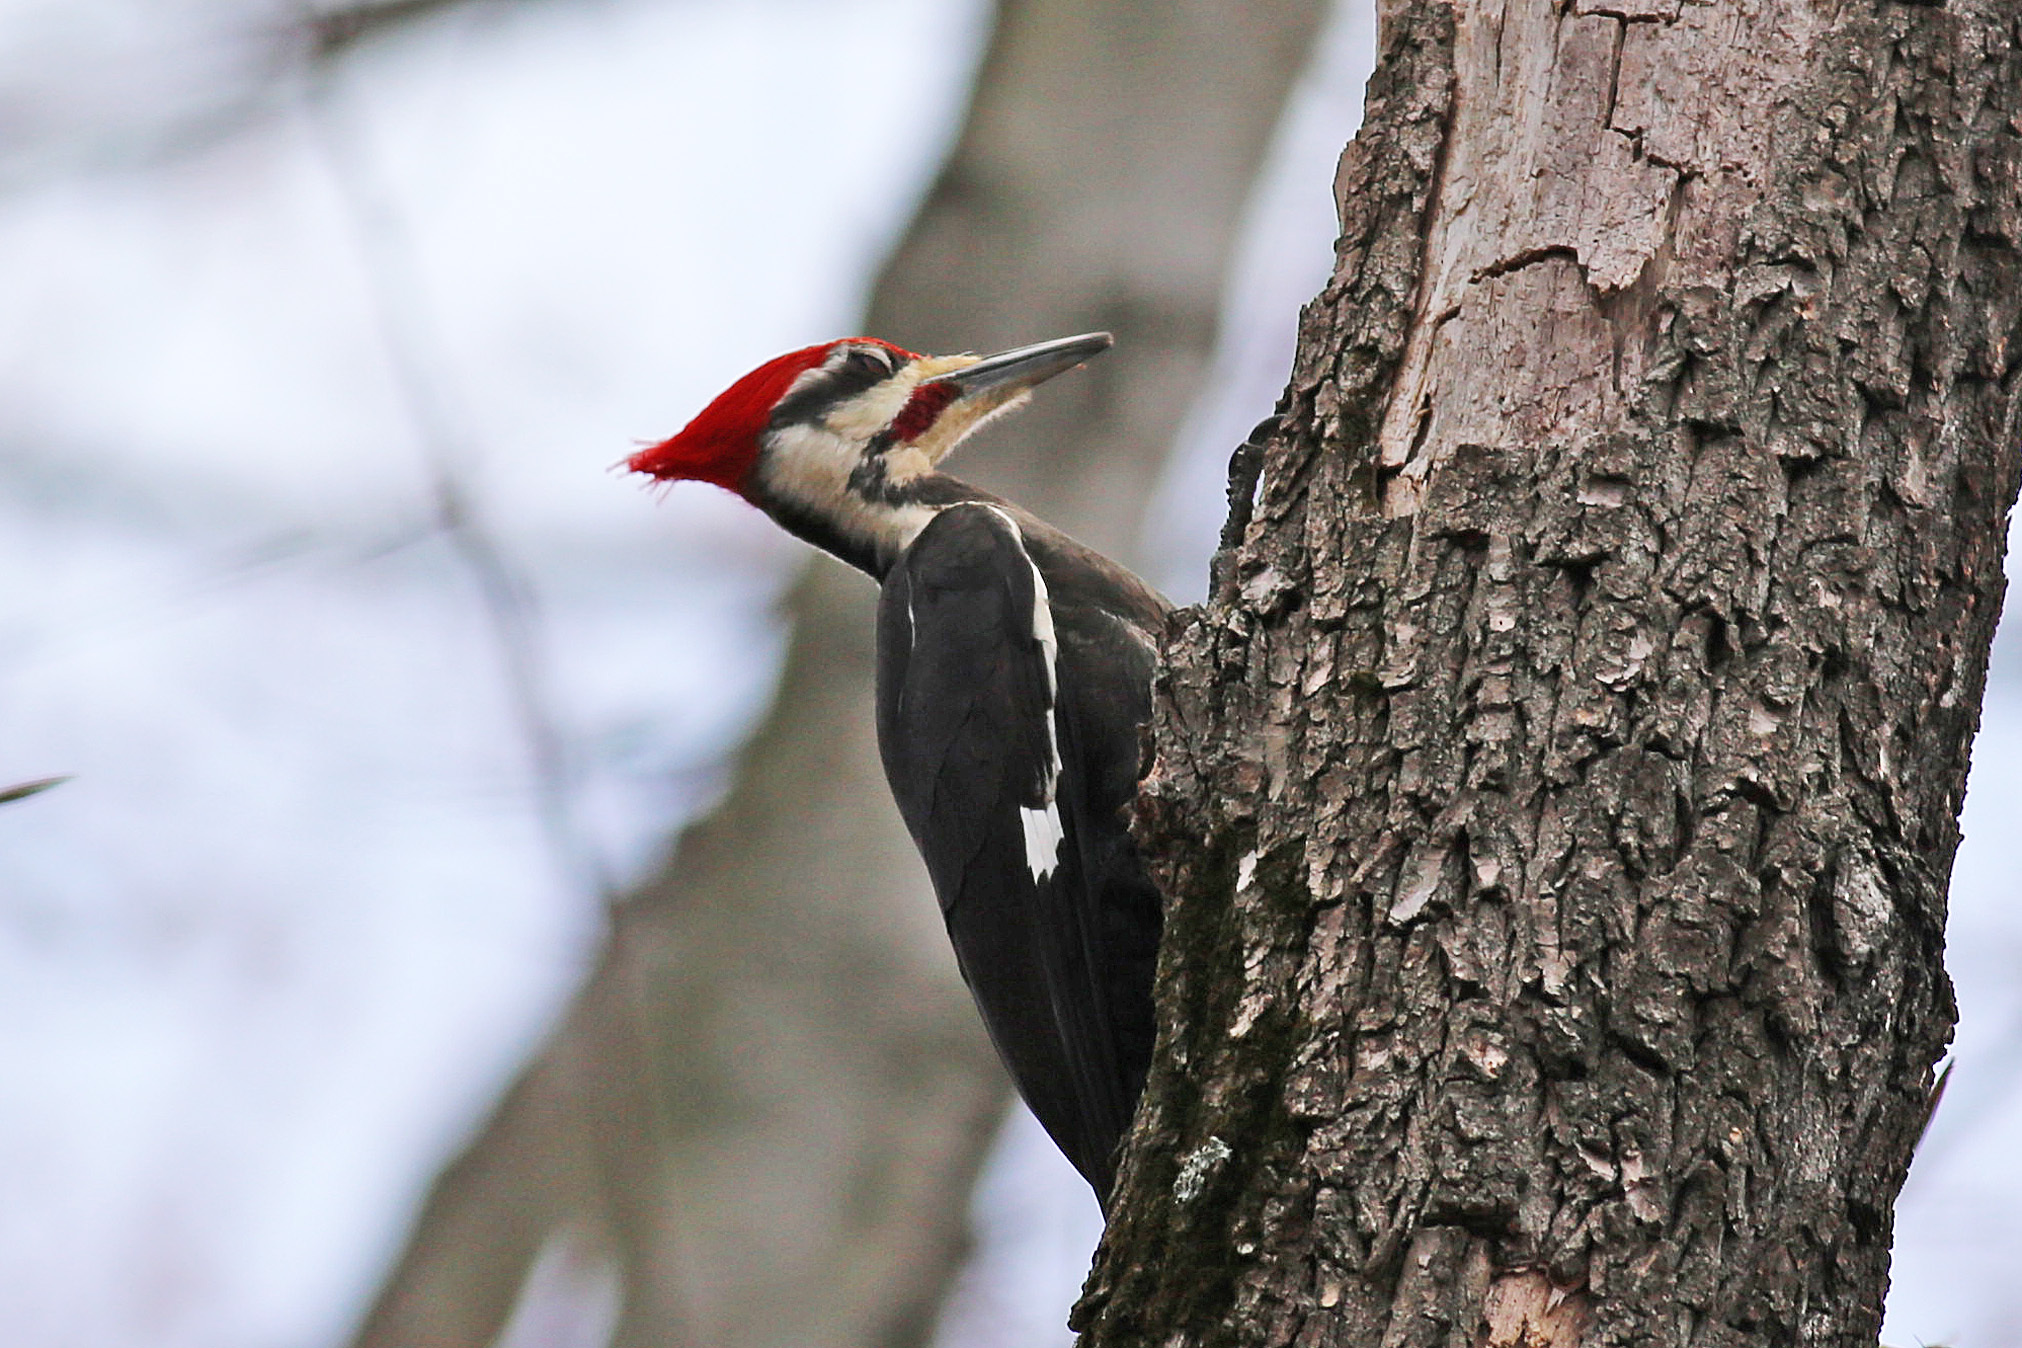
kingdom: Animalia
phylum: Chordata
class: Aves
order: Piciformes
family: Picidae
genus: Dryocopus
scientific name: Dryocopus pileatus
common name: Pileated woodpecker
